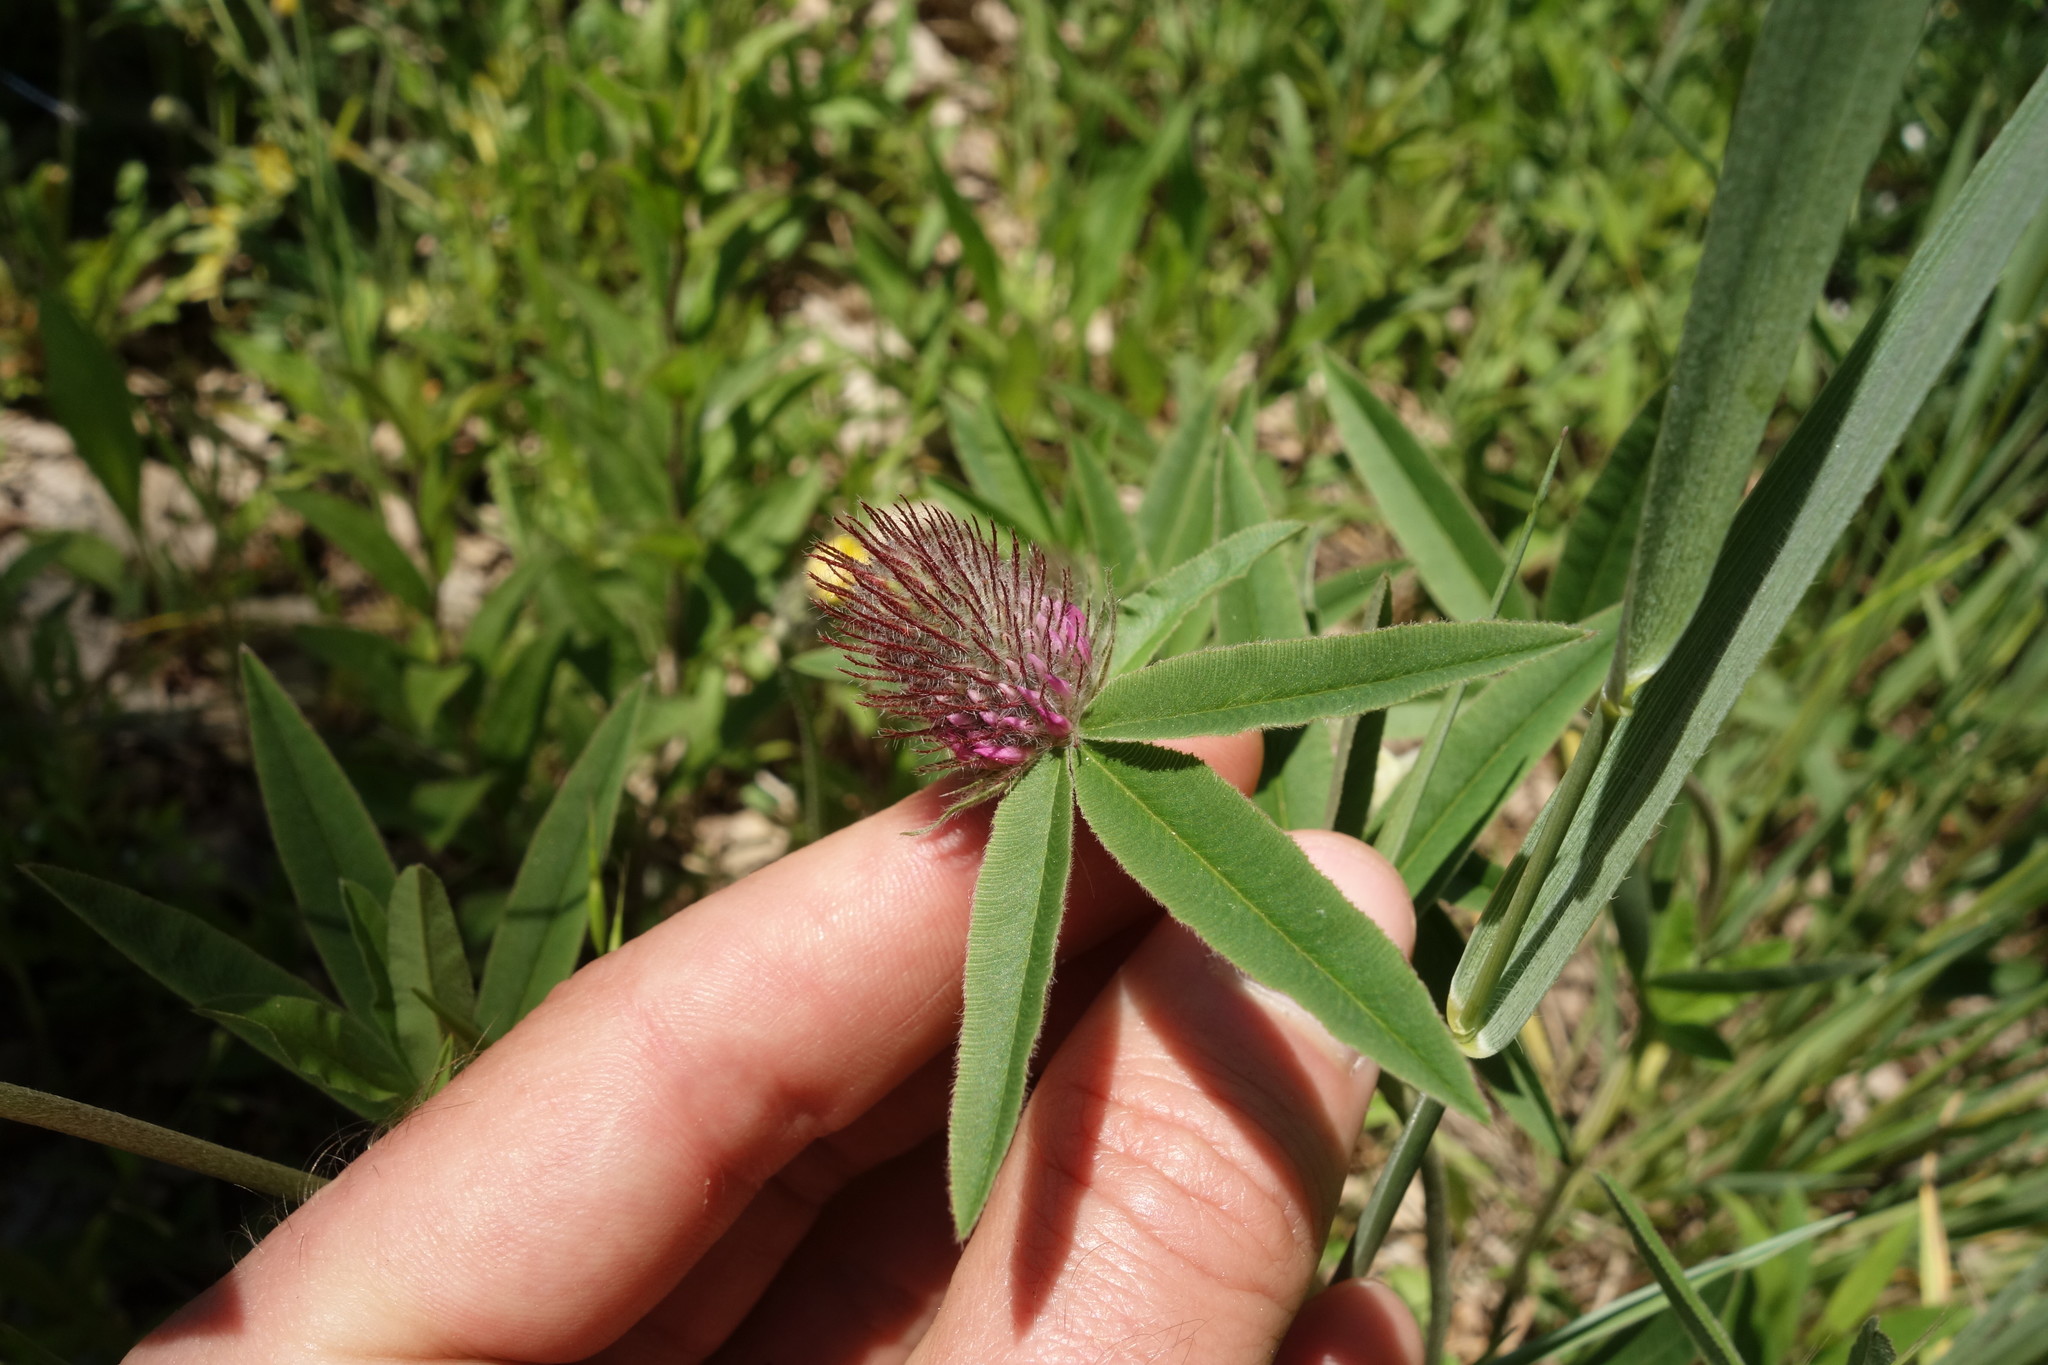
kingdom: Plantae
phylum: Tracheophyta
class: Magnoliopsida
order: Fabales
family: Fabaceae
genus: Trifolium
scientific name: Trifolium alpestre
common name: Owl-head clover
